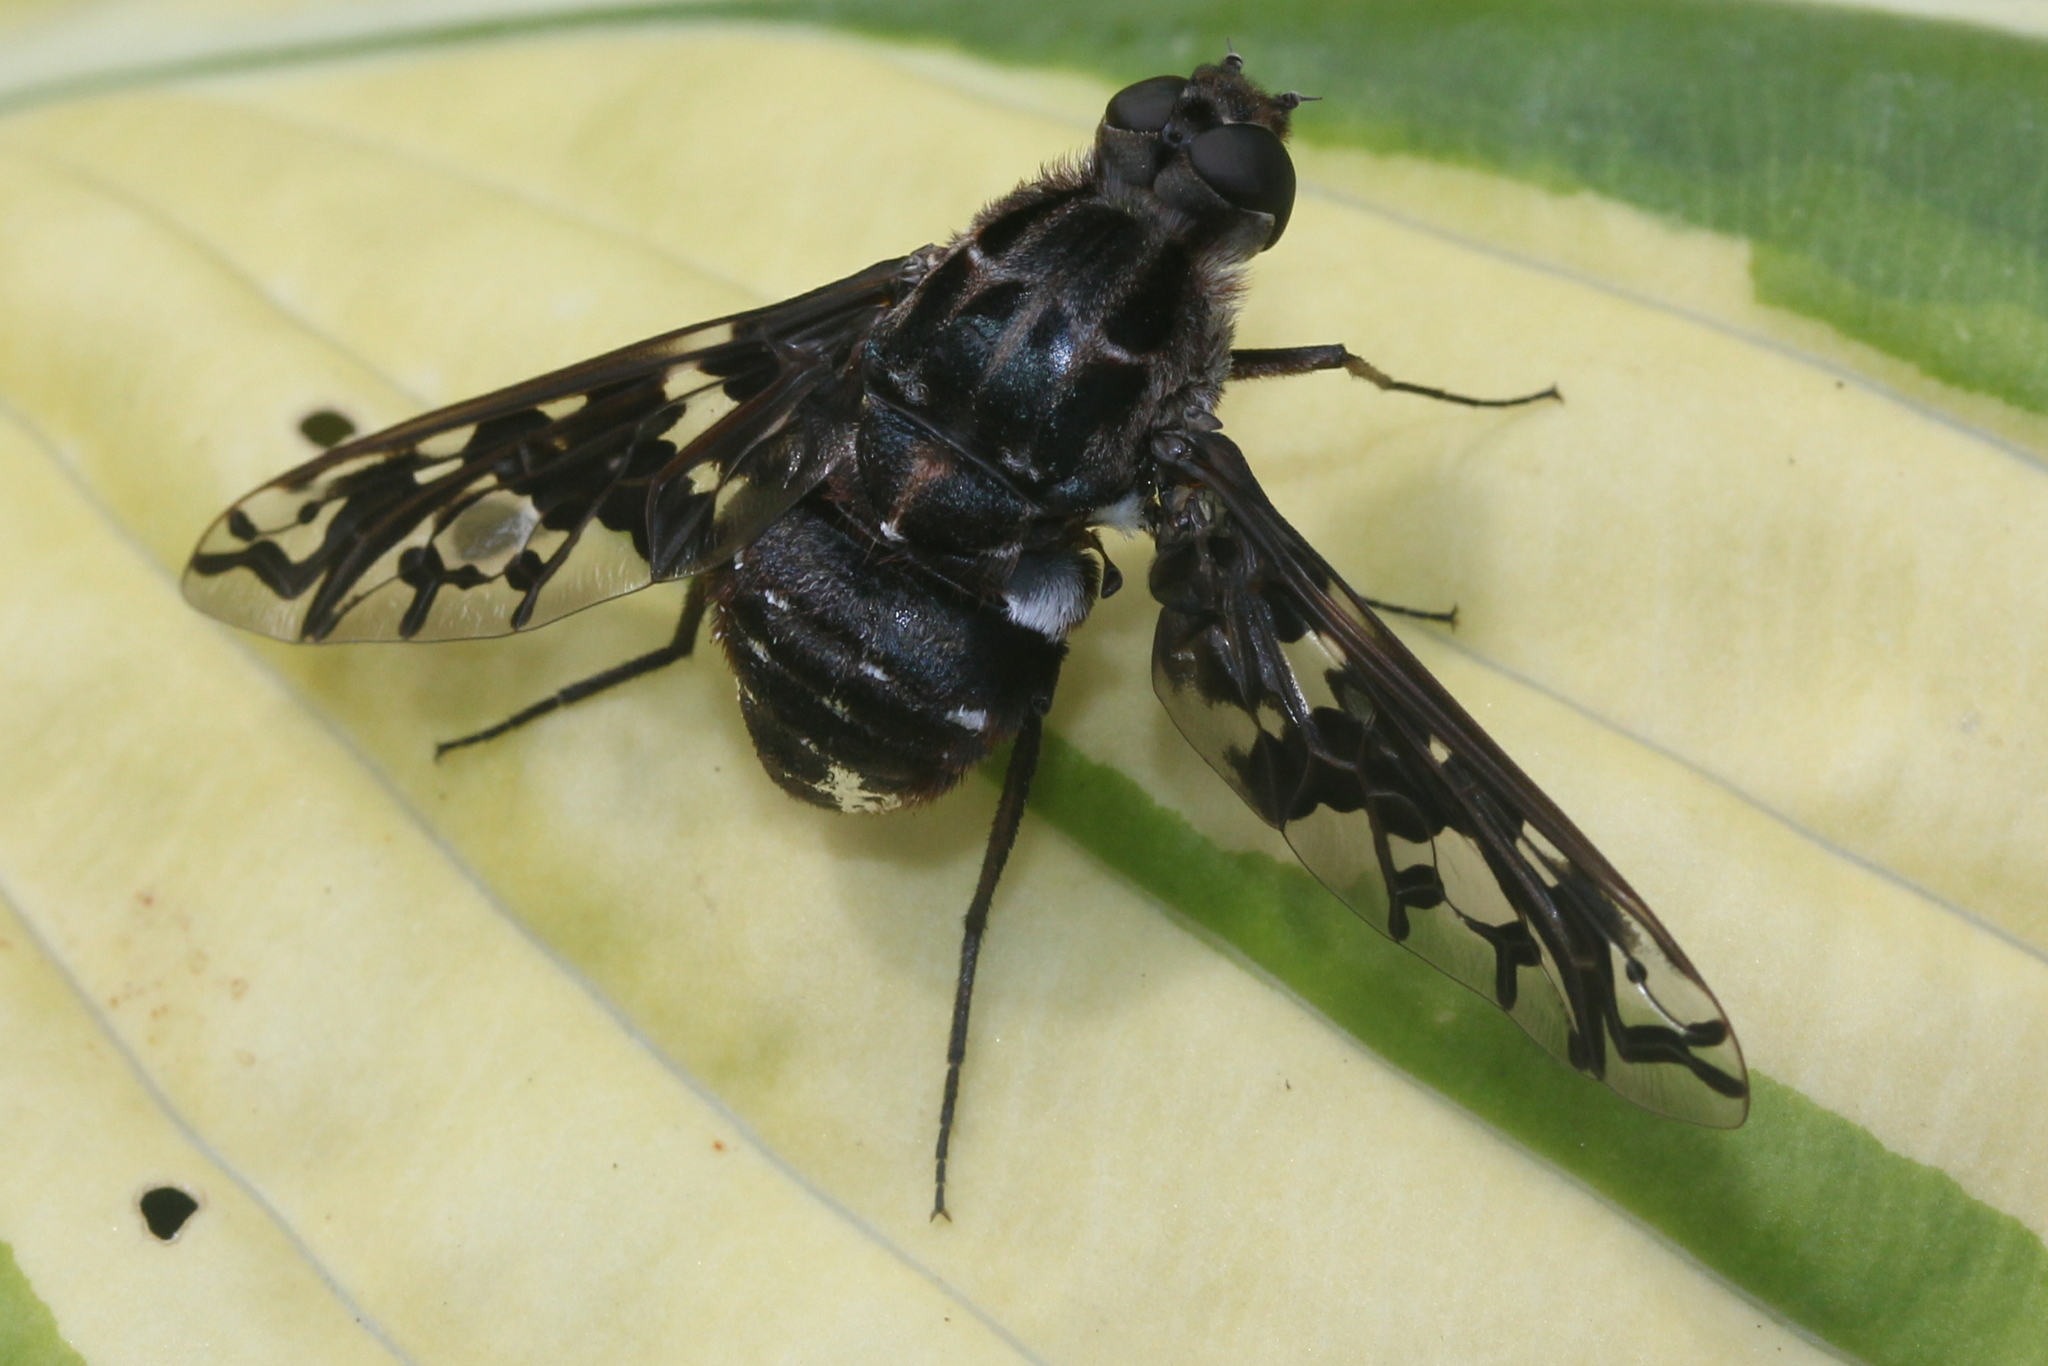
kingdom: Animalia
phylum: Arthropoda
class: Insecta
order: Diptera
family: Bombyliidae
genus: Xenox
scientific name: Xenox tigrinus
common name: Tiger bee fly
